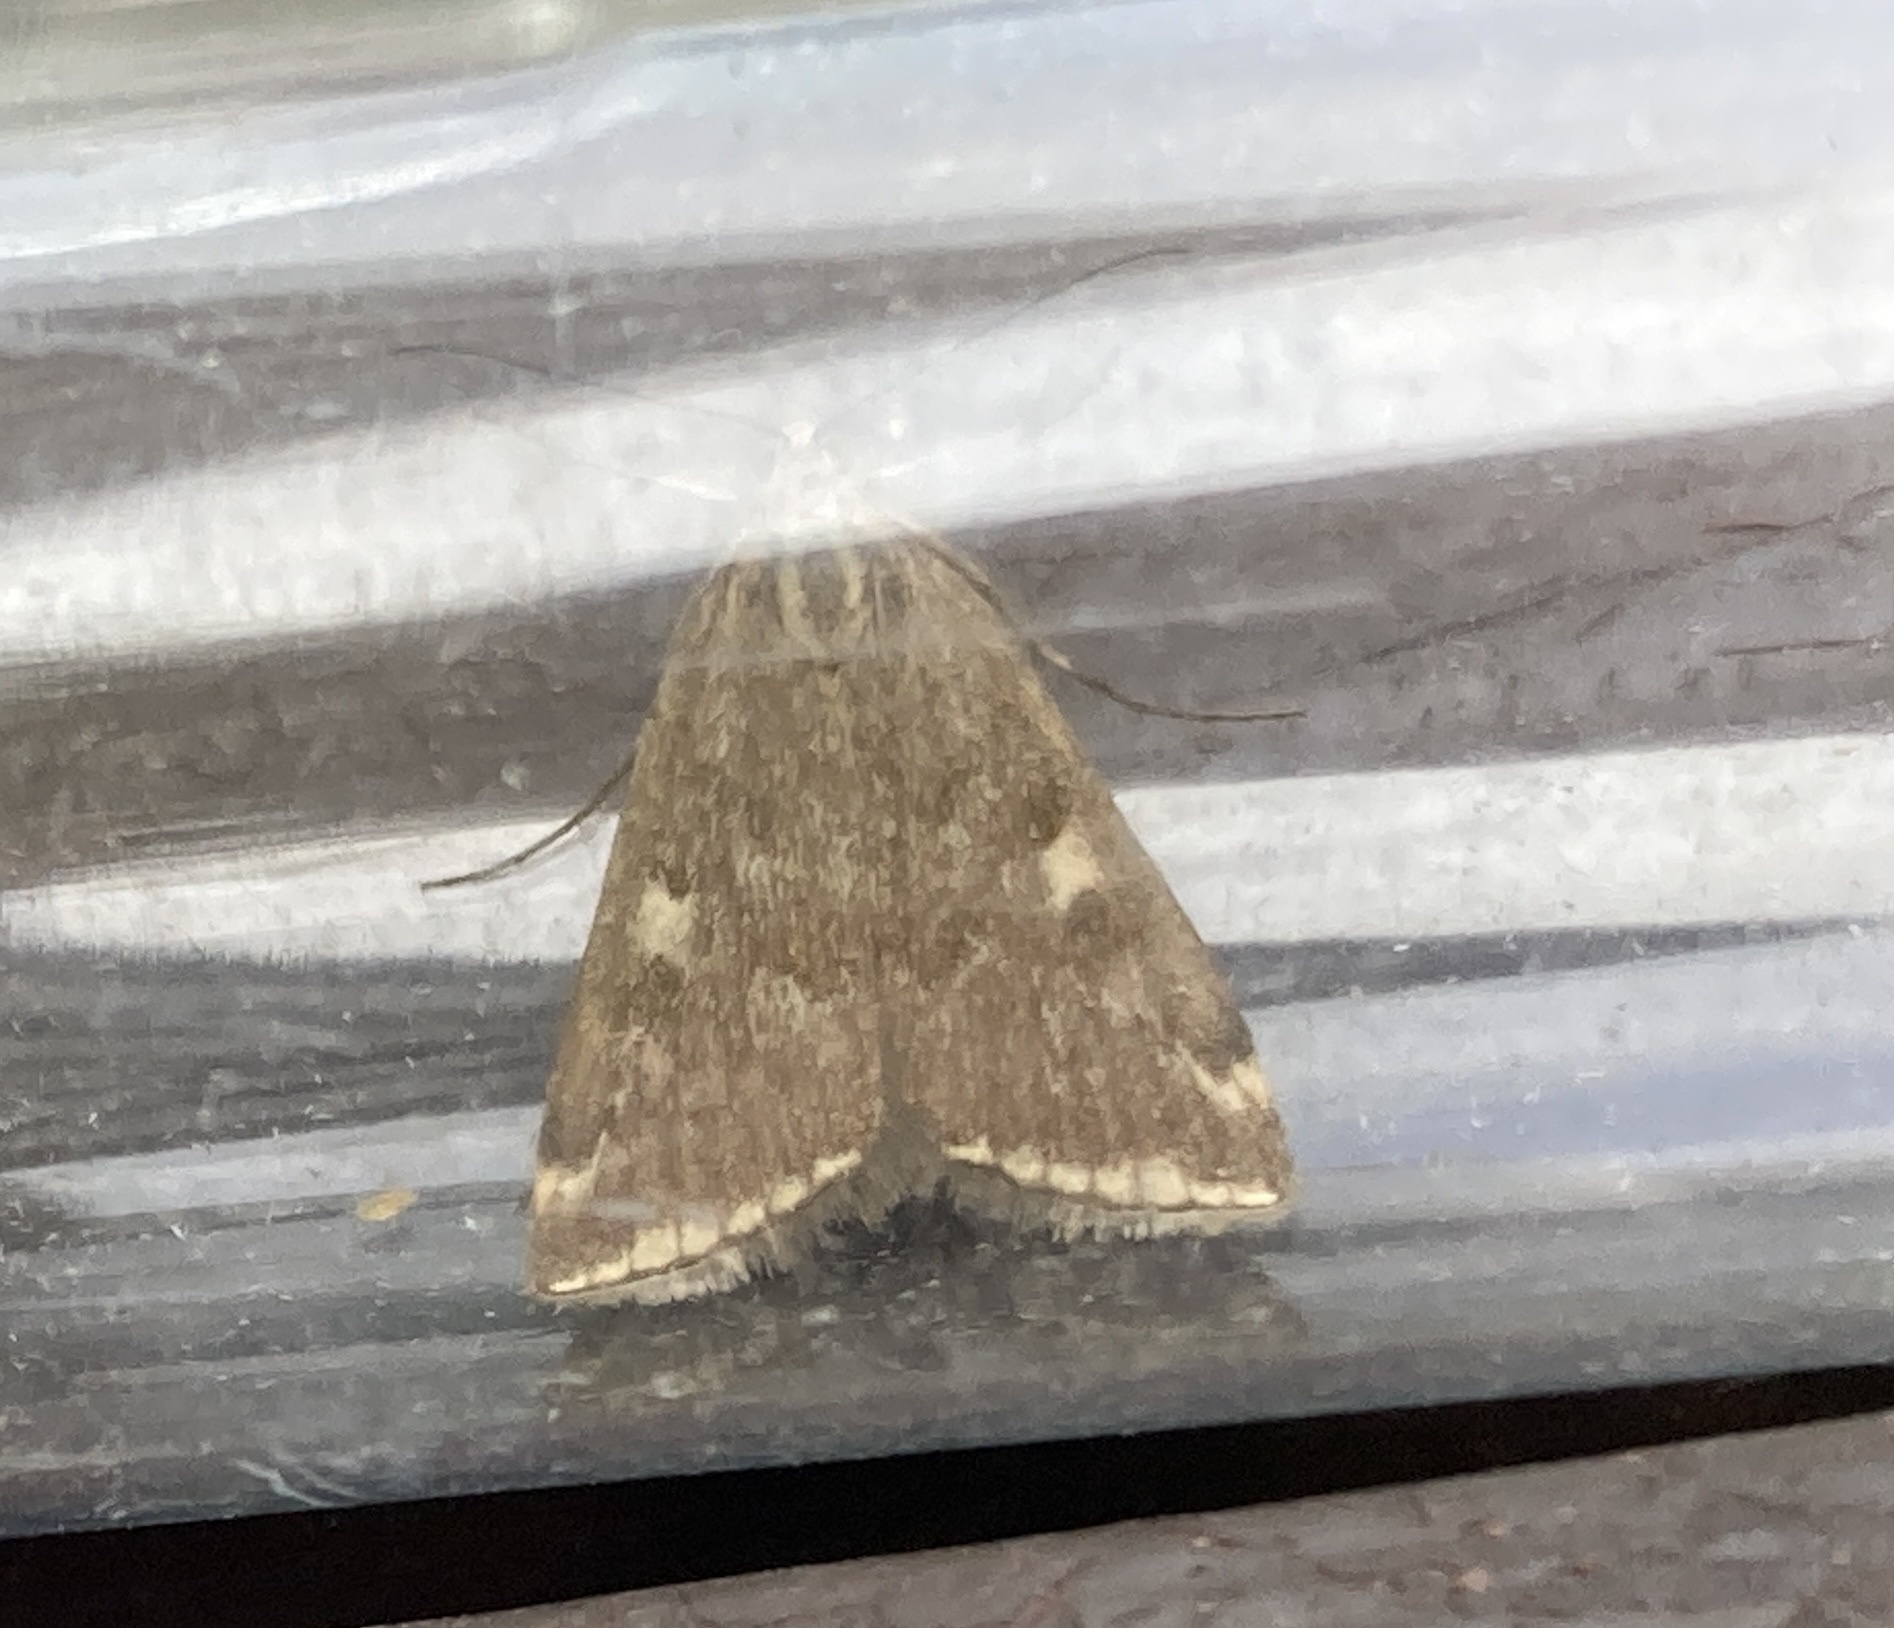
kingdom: Animalia
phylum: Arthropoda
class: Insecta
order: Lepidoptera
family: Crambidae
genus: Loxostege
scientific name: Loxostege sticticalis
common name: Crambid moth
